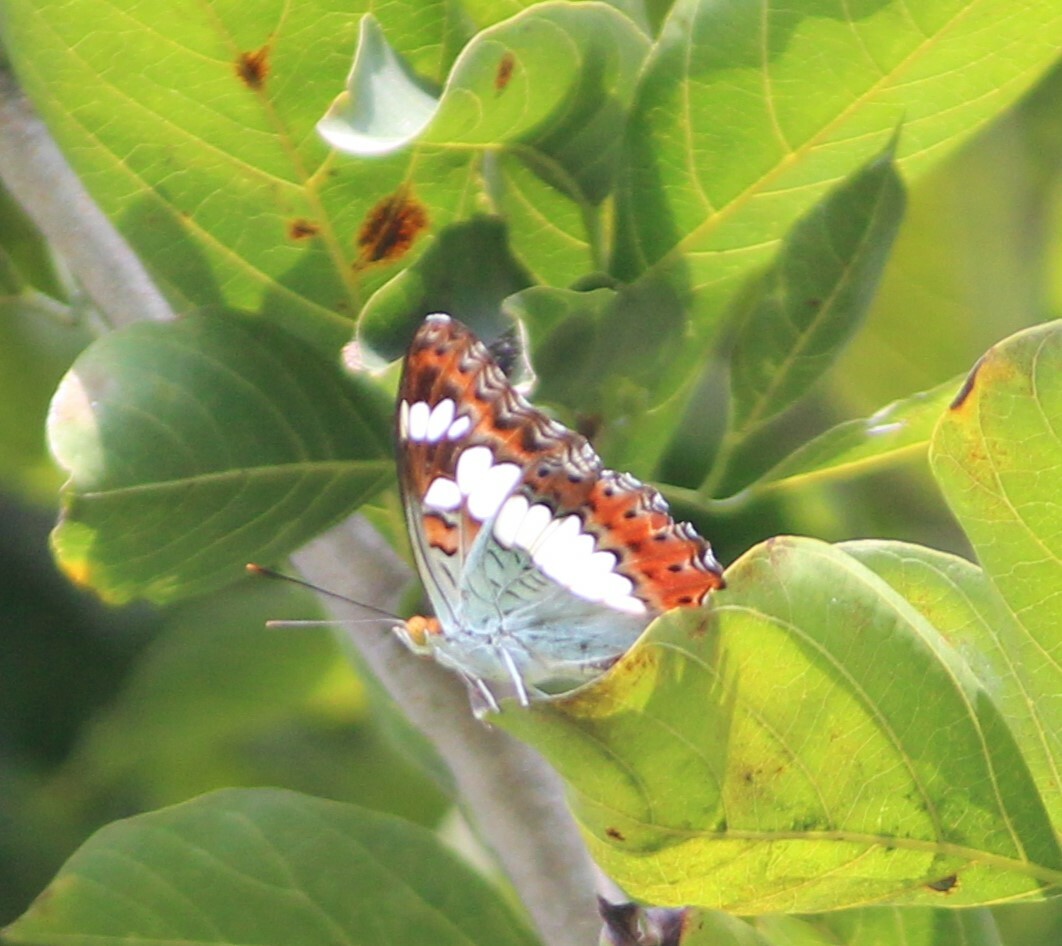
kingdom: Animalia
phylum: Arthropoda
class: Insecta
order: Lepidoptera
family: Nymphalidae
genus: Limenitis
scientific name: Limenitis Moduza procris
